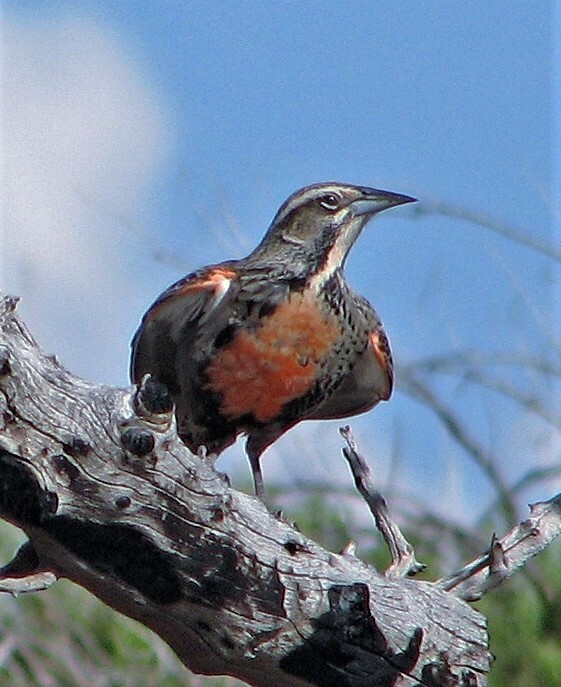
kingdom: Animalia
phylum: Chordata
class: Aves
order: Passeriformes
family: Icteridae
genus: Sturnella
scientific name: Sturnella loyca
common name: Long-tailed meadowlark
